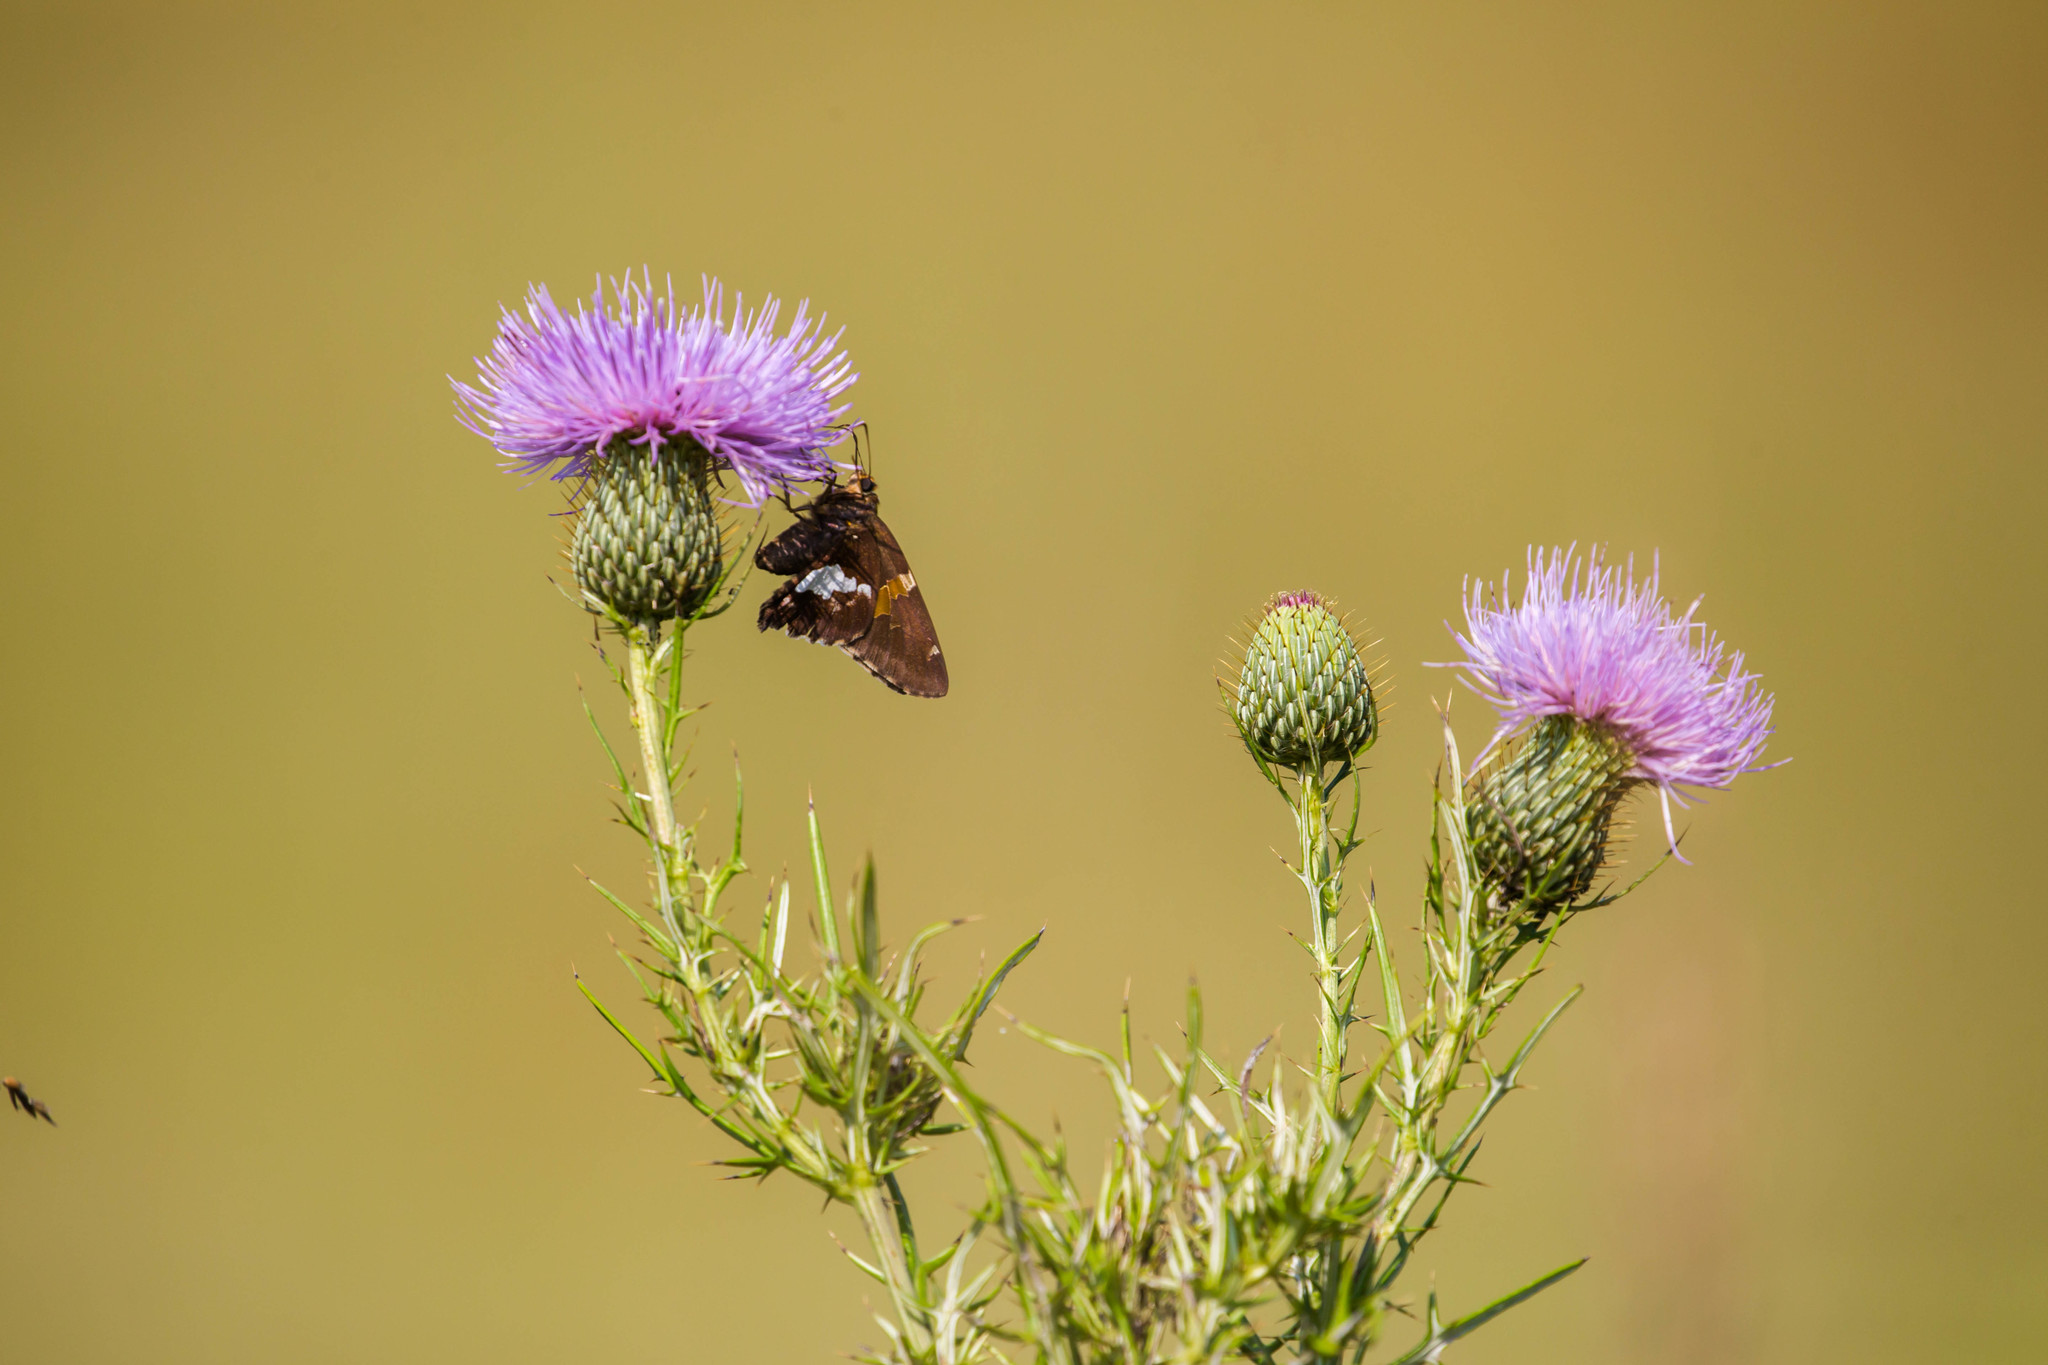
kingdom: Animalia
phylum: Arthropoda
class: Insecta
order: Lepidoptera
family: Hesperiidae
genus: Epargyreus
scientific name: Epargyreus clarus
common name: Silver-spotted skipper
